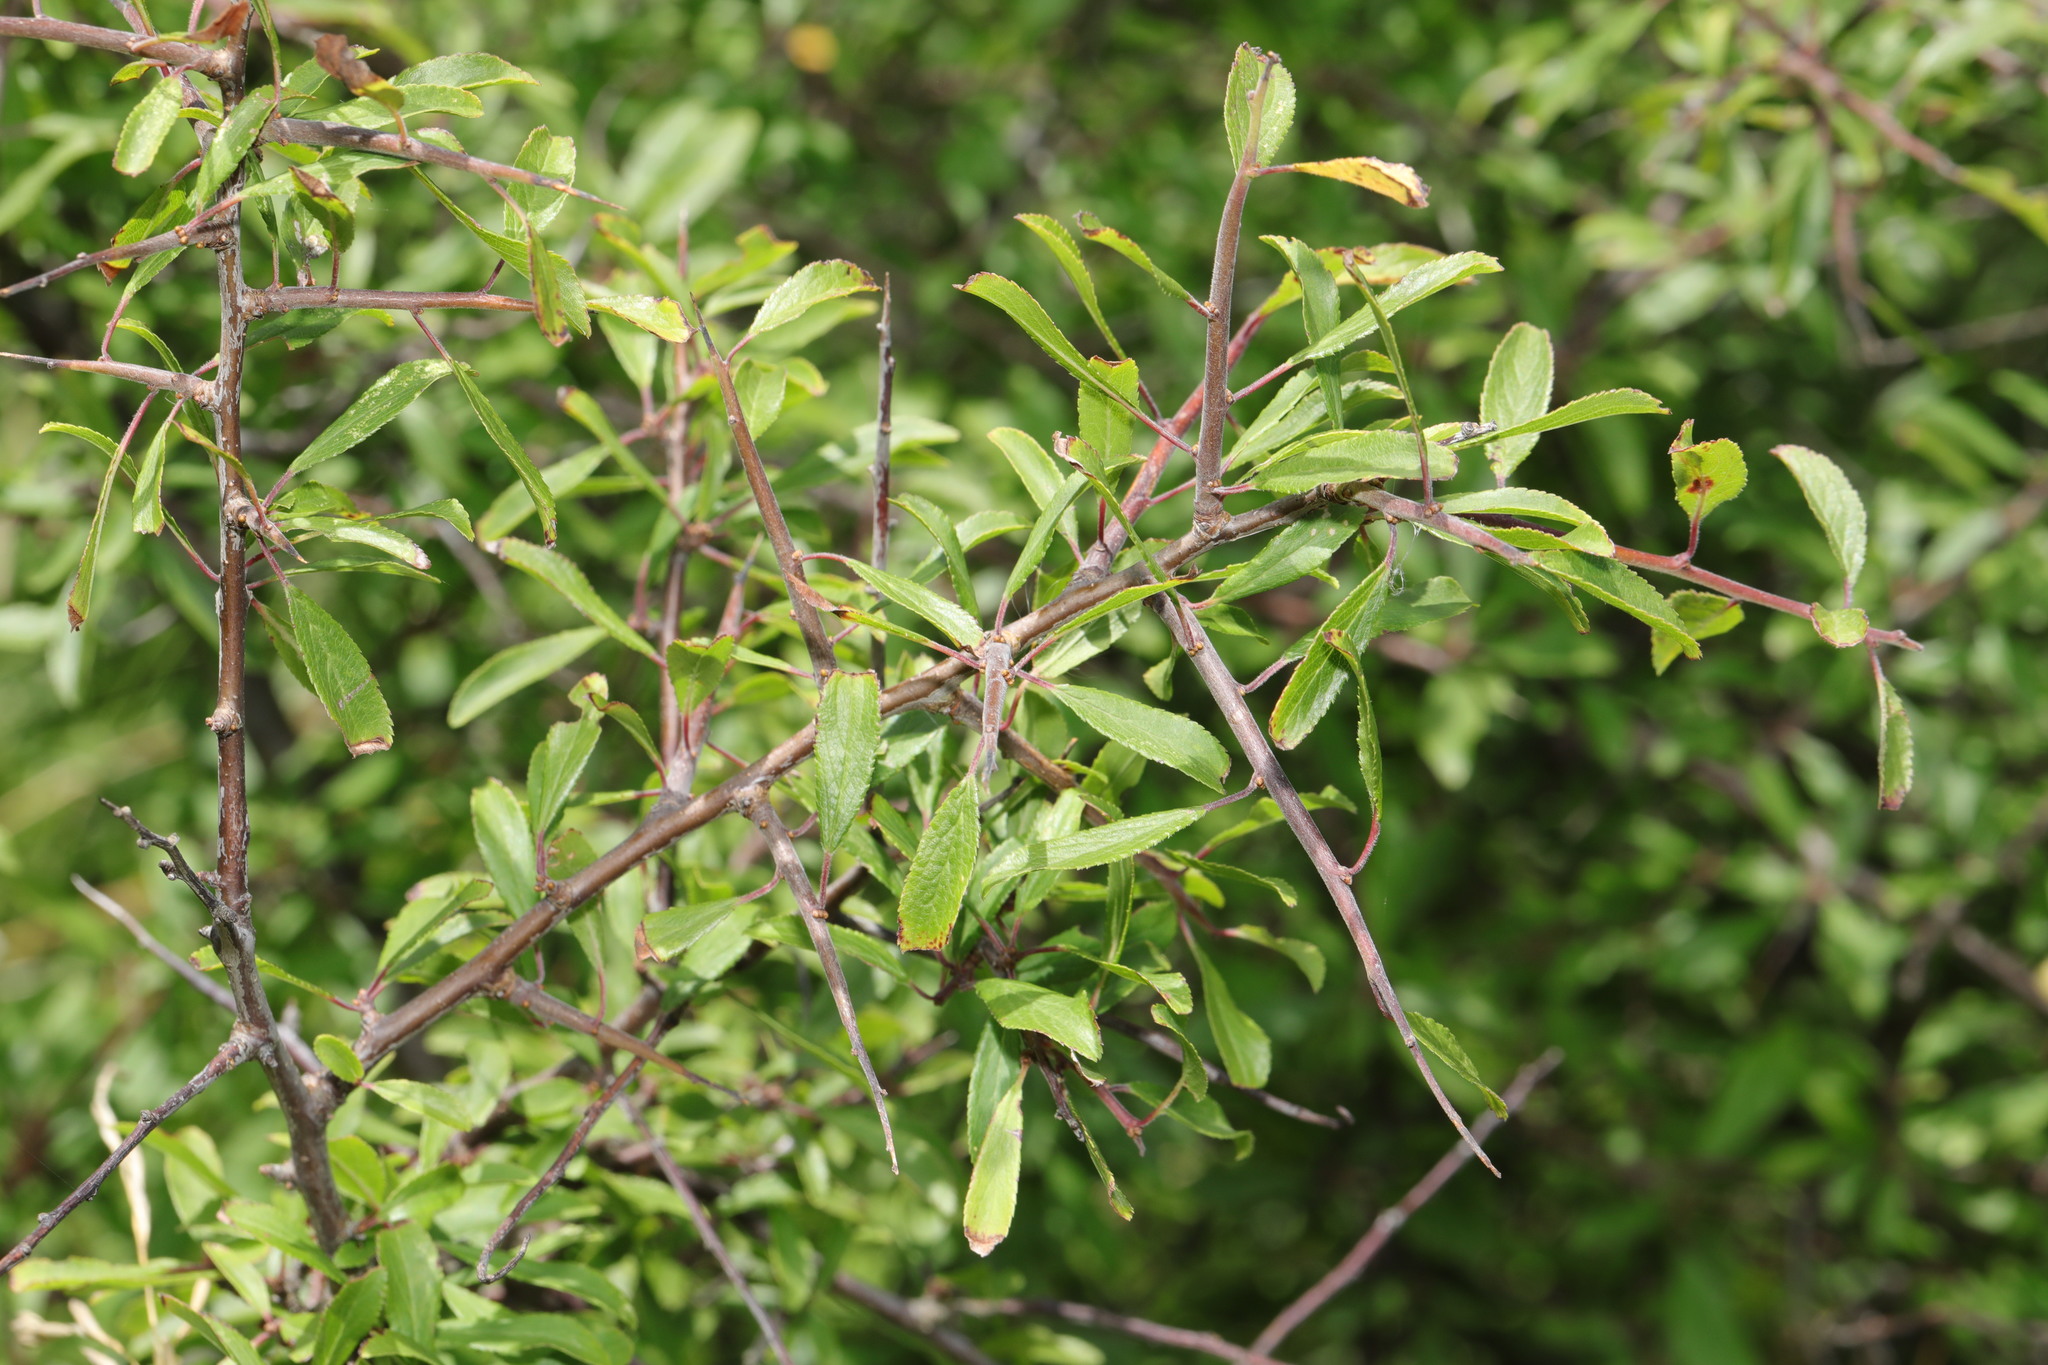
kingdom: Plantae
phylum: Tracheophyta
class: Magnoliopsida
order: Rosales
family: Rosaceae
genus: Prunus
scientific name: Prunus spinosa
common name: Blackthorn
